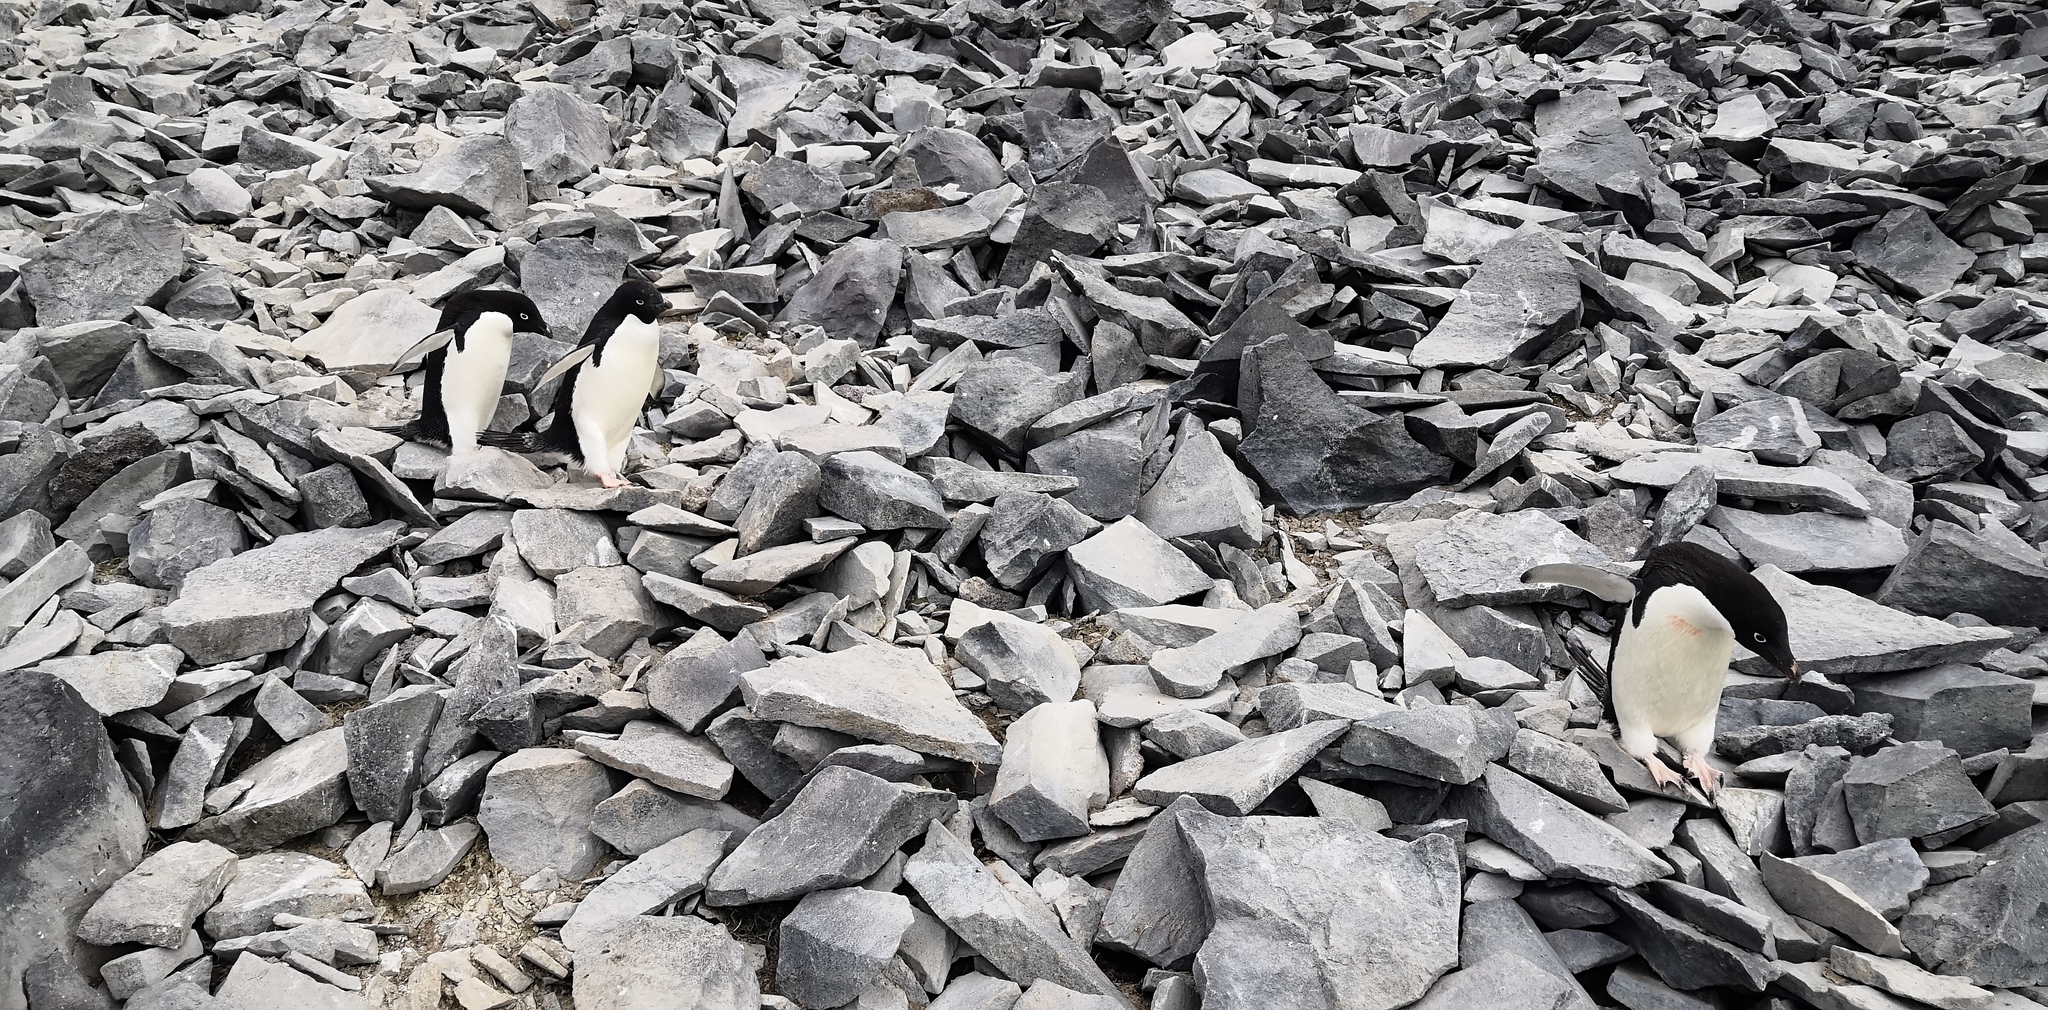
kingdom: Animalia
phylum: Chordata
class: Aves
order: Sphenisciformes
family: Spheniscidae
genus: Pygoscelis
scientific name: Pygoscelis adeliae
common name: Adelie penguin
